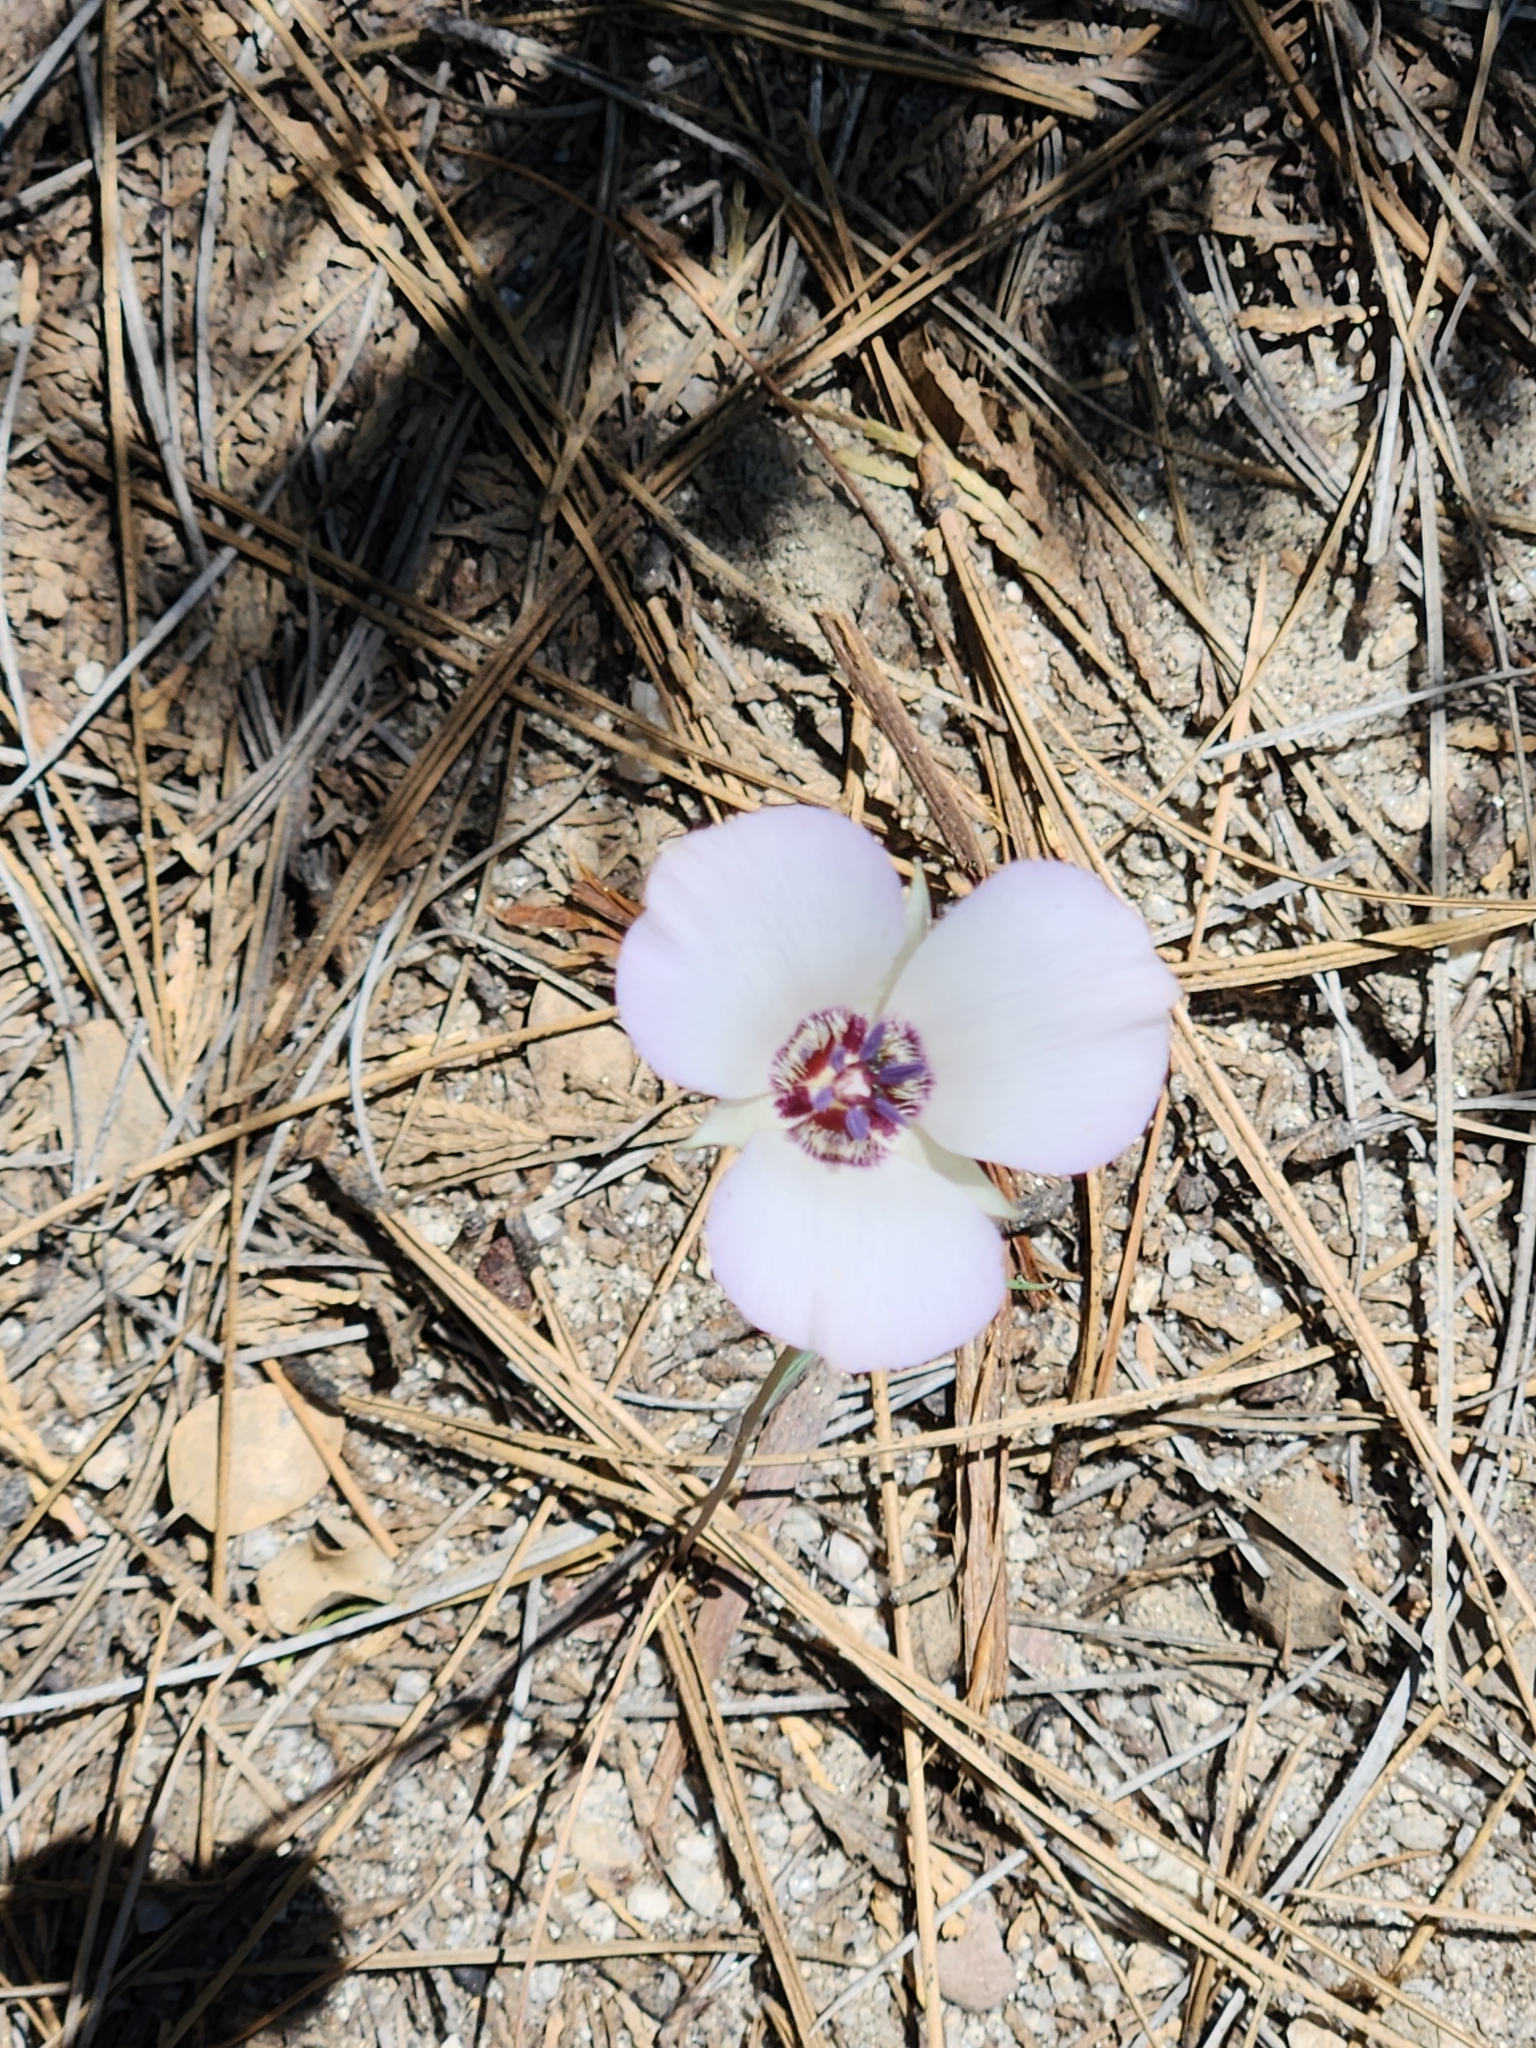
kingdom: Plantae
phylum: Tracheophyta
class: Liliopsida
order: Liliales
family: Liliaceae
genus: Calochortus
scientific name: Calochortus invenustus
